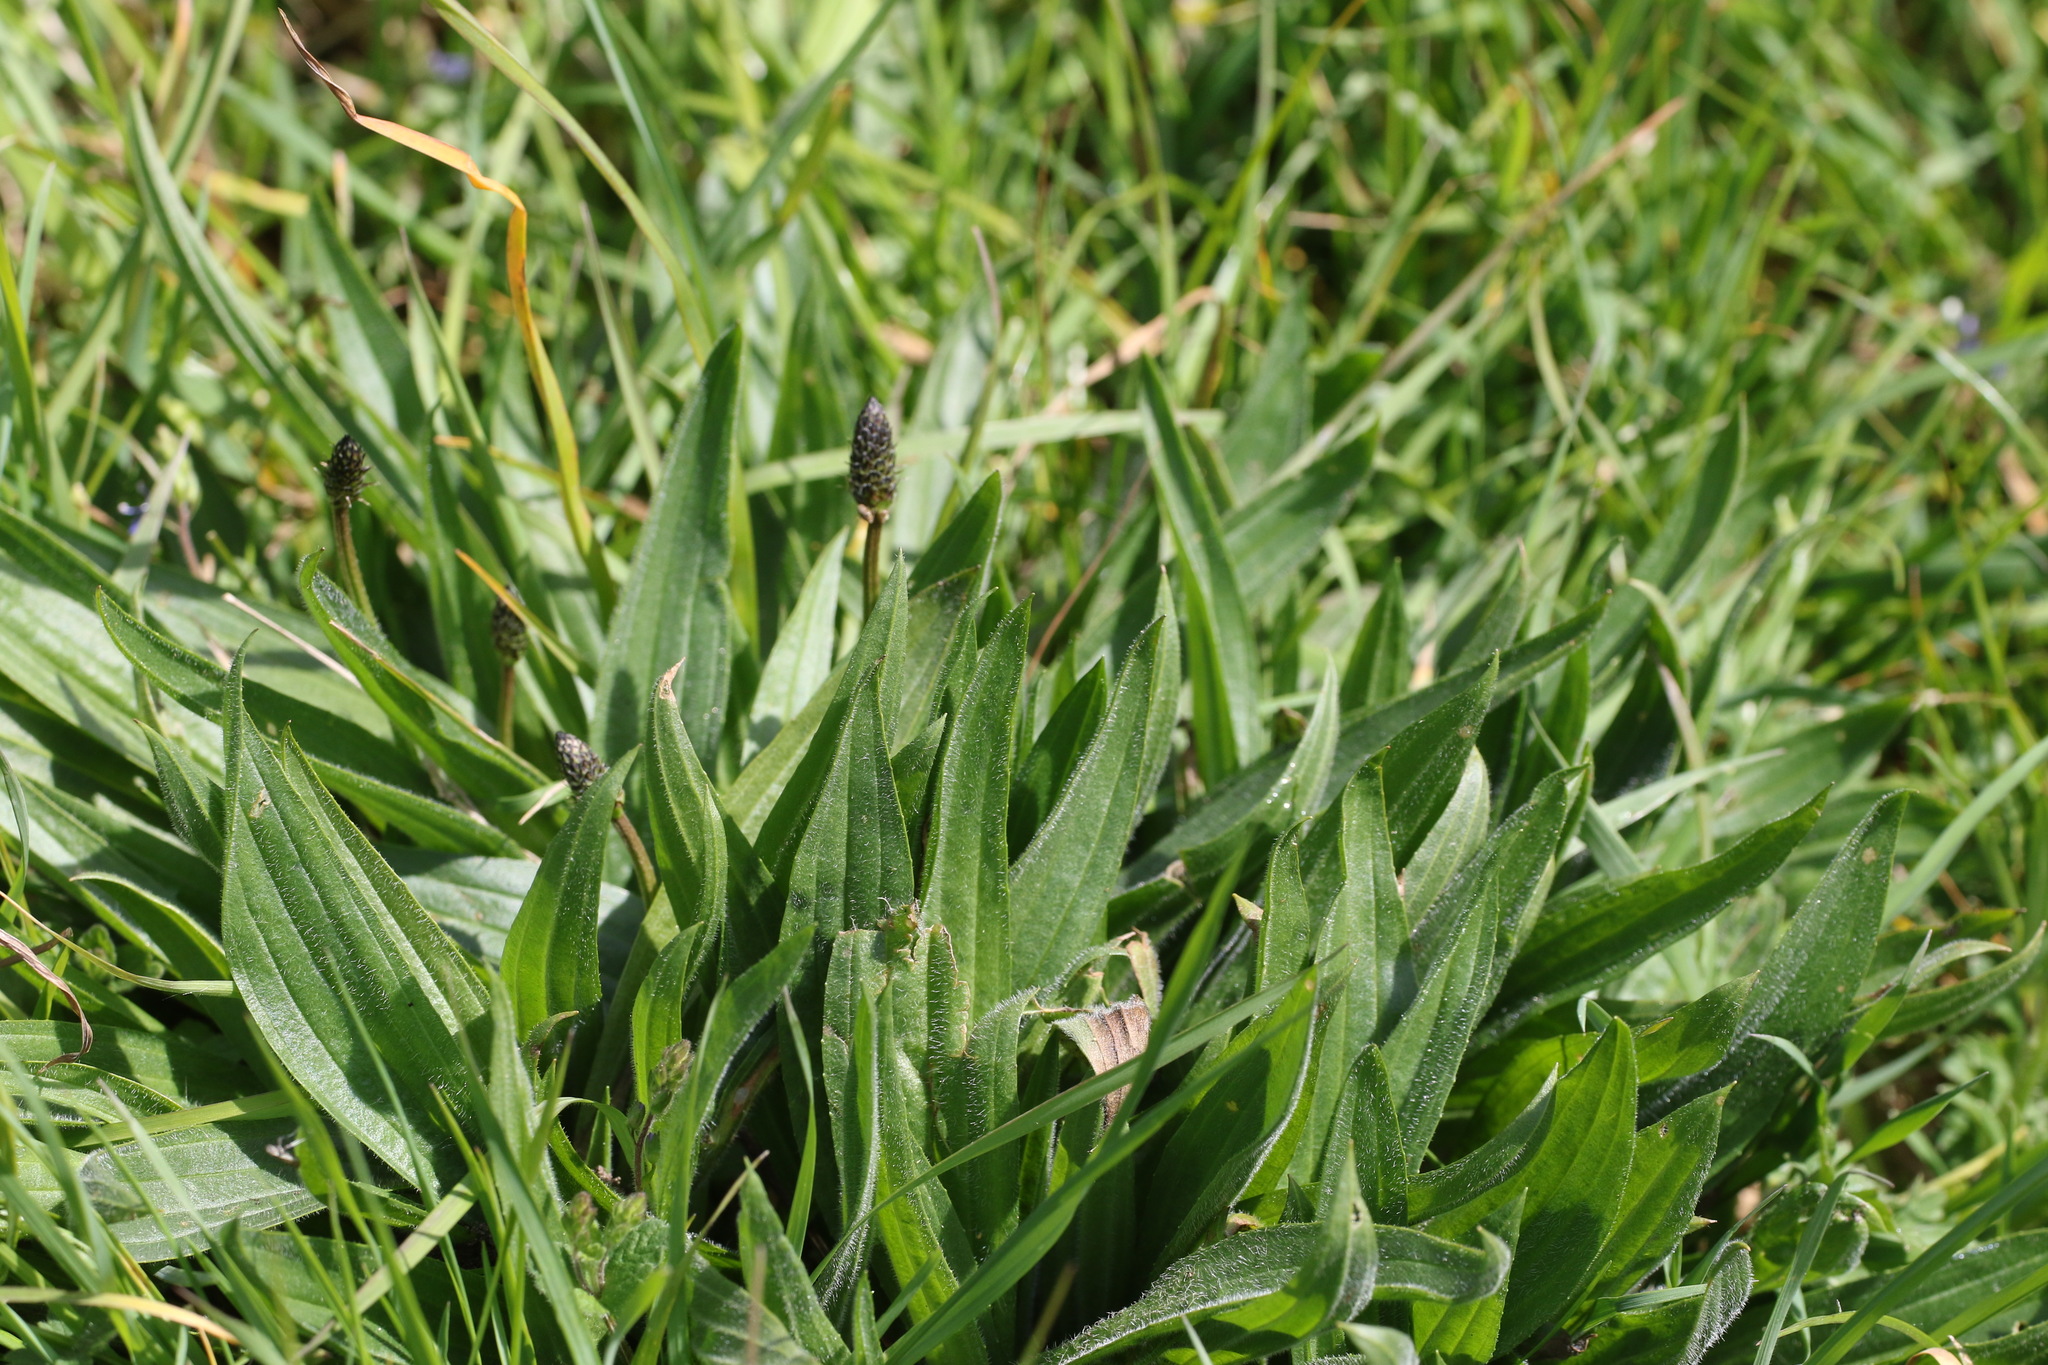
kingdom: Plantae
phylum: Tracheophyta
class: Magnoliopsida
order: Lamiales
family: Plantaginaceae
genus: Plantago
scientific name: Plantago lanceolata
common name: Ribwort plantain
